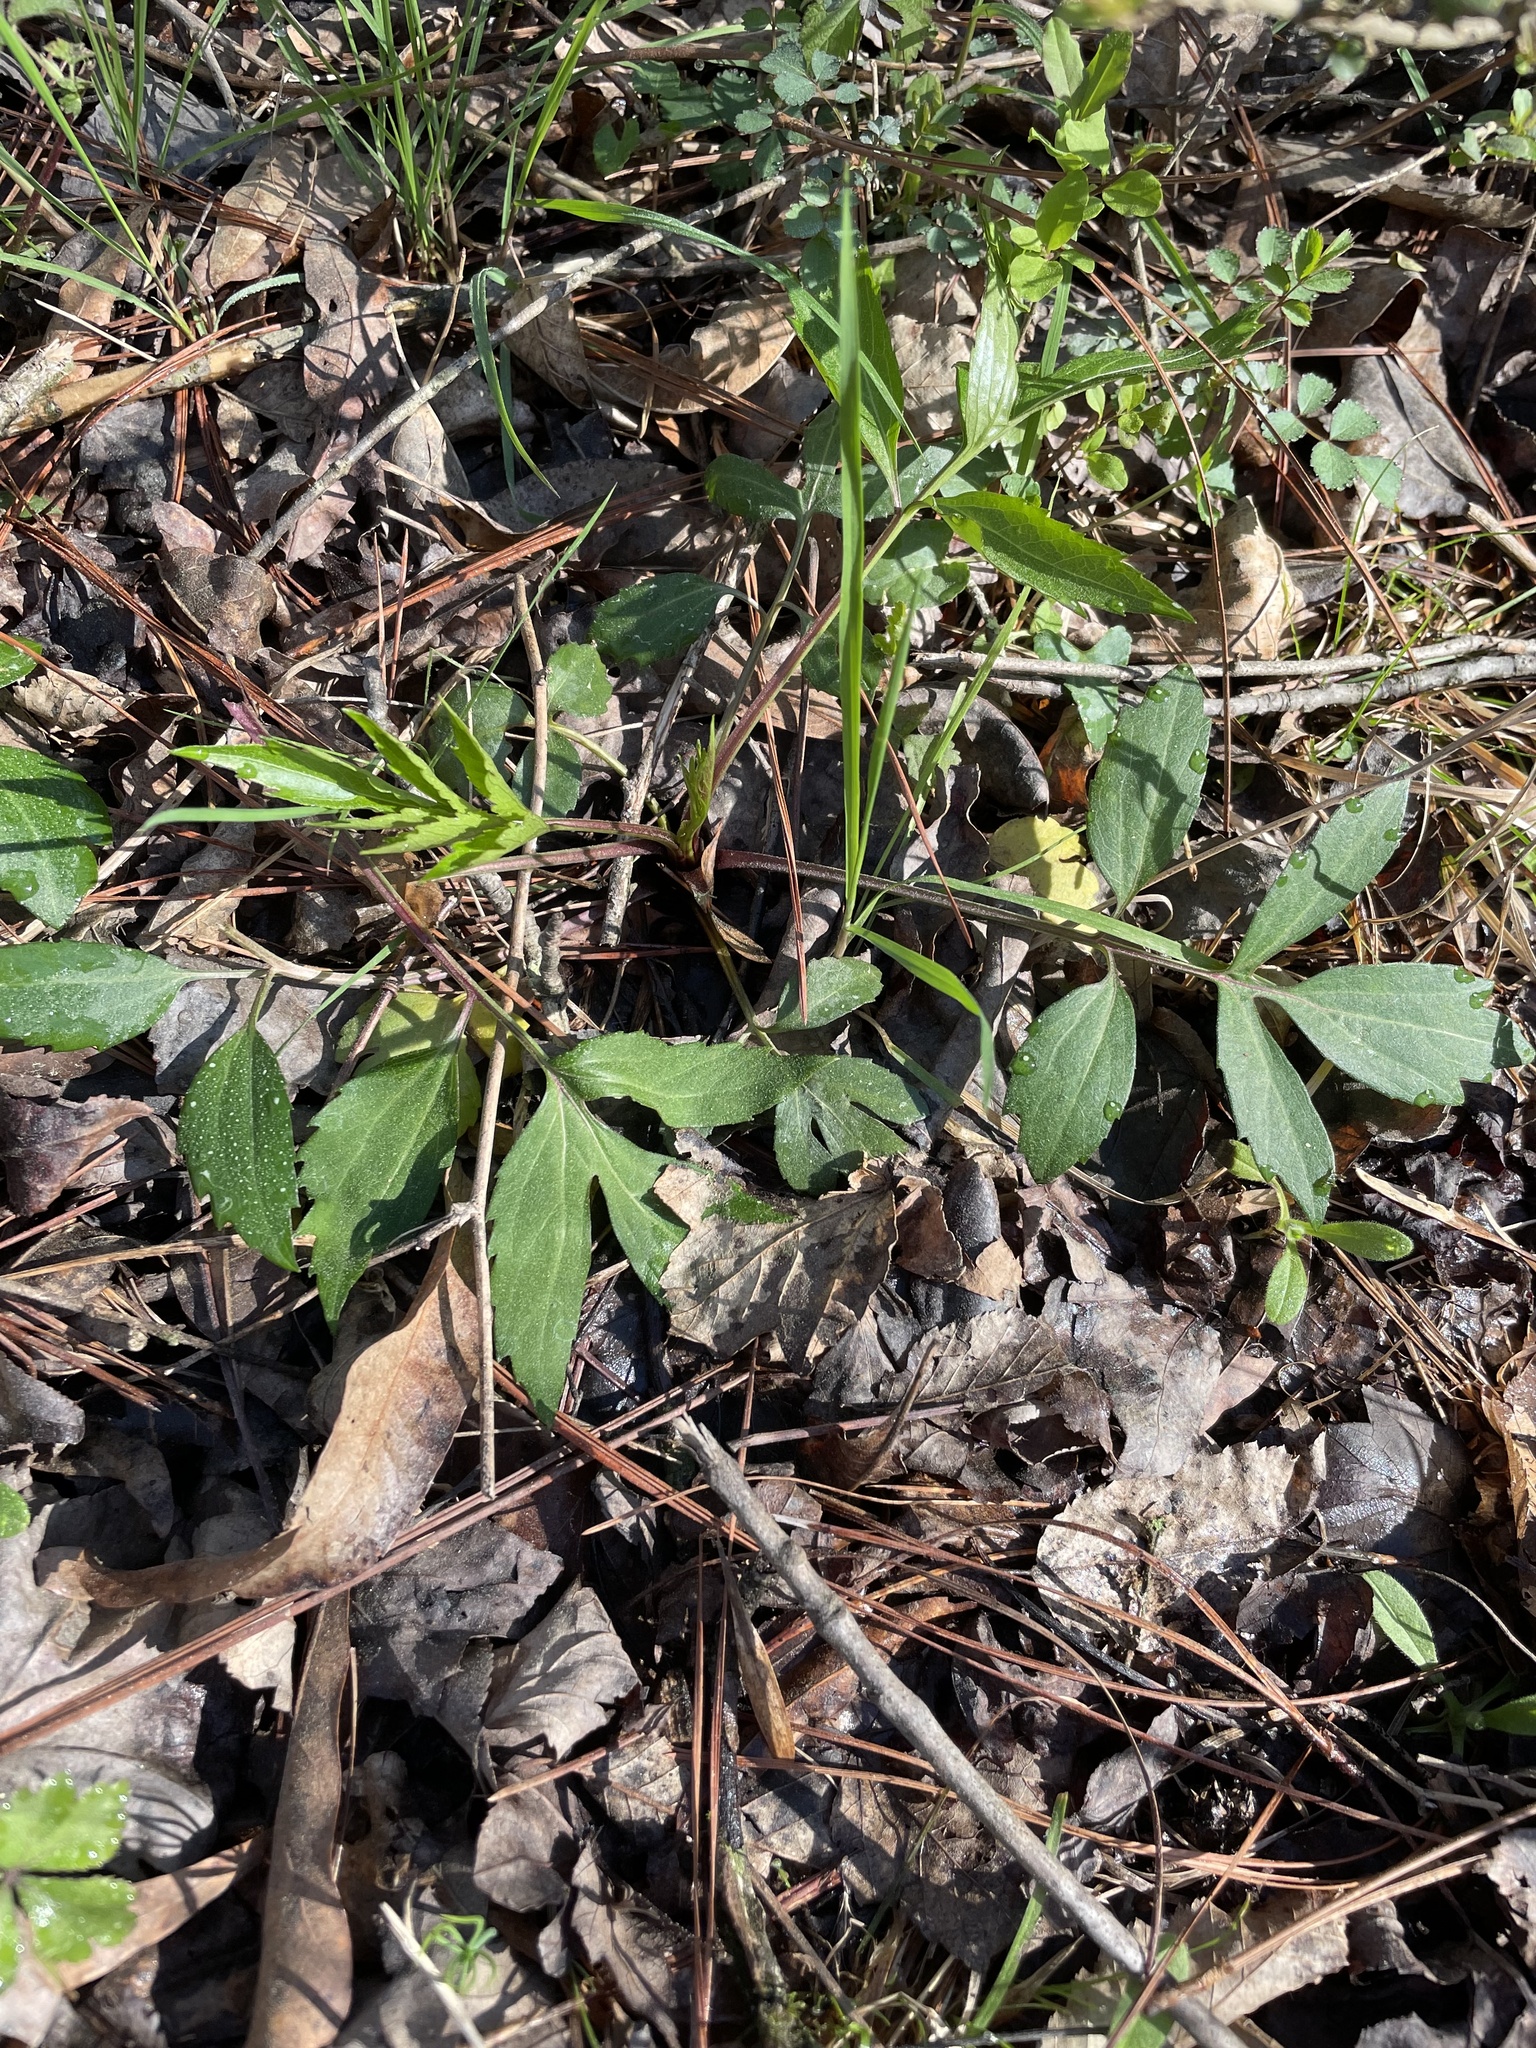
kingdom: Plantae
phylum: Tracheophyta
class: Magnoliopsida
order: Asterales
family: Asteraceae
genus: Rudbeckia
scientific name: Rudbeckia laciniata
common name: Coneflower
